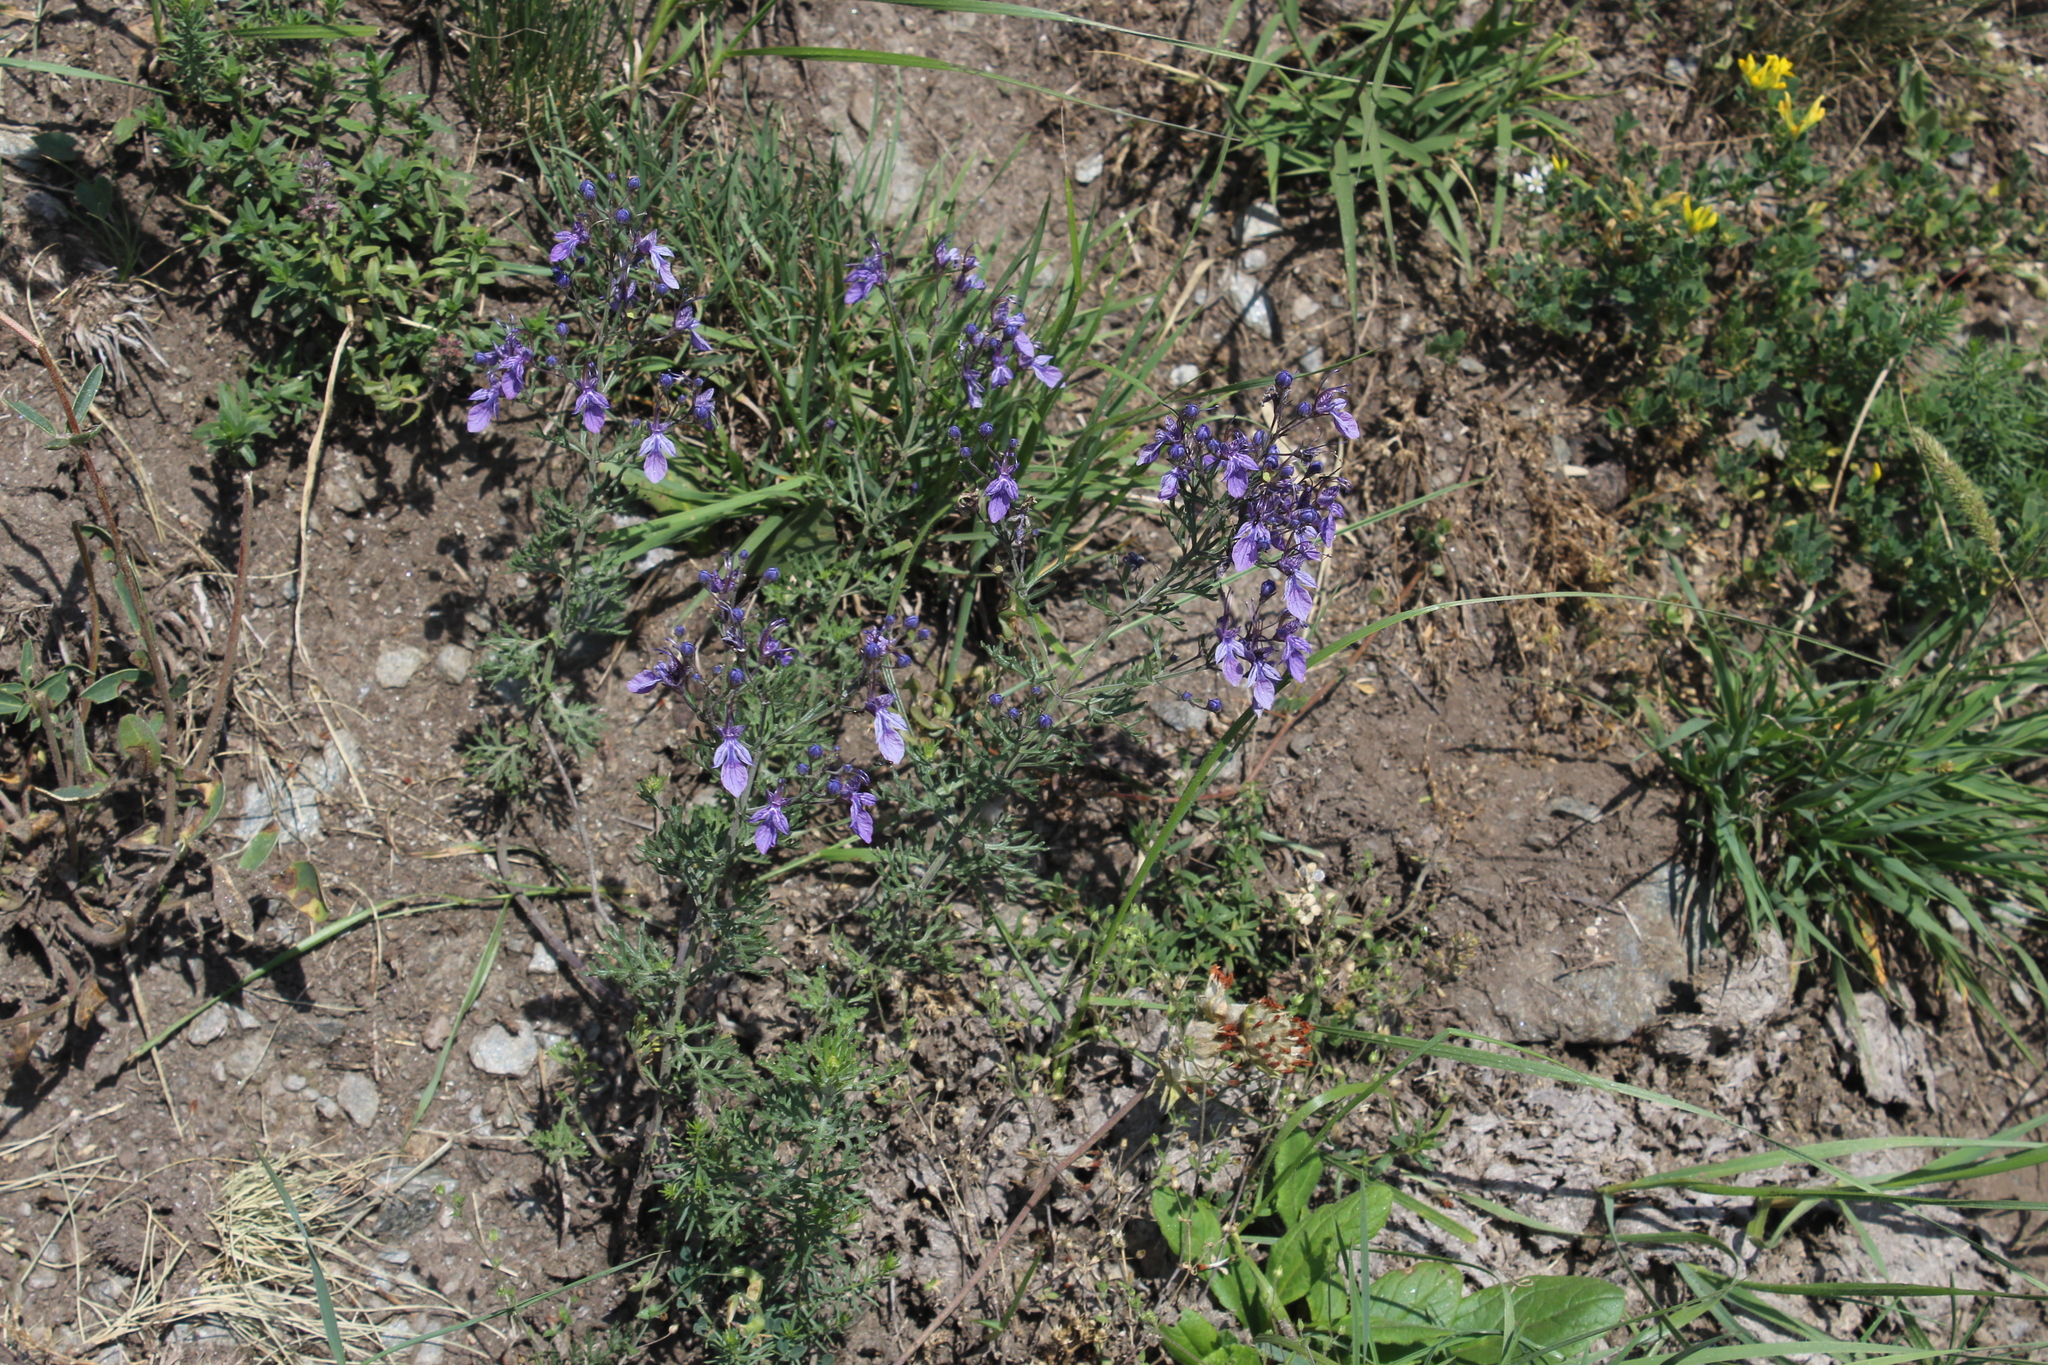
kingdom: Plantae
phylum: Tracheophyta
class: Magnoliopsida
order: Lamiales
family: Lamiaceae
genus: Teucrium
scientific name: Teucrium orientale
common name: Oriental germander
